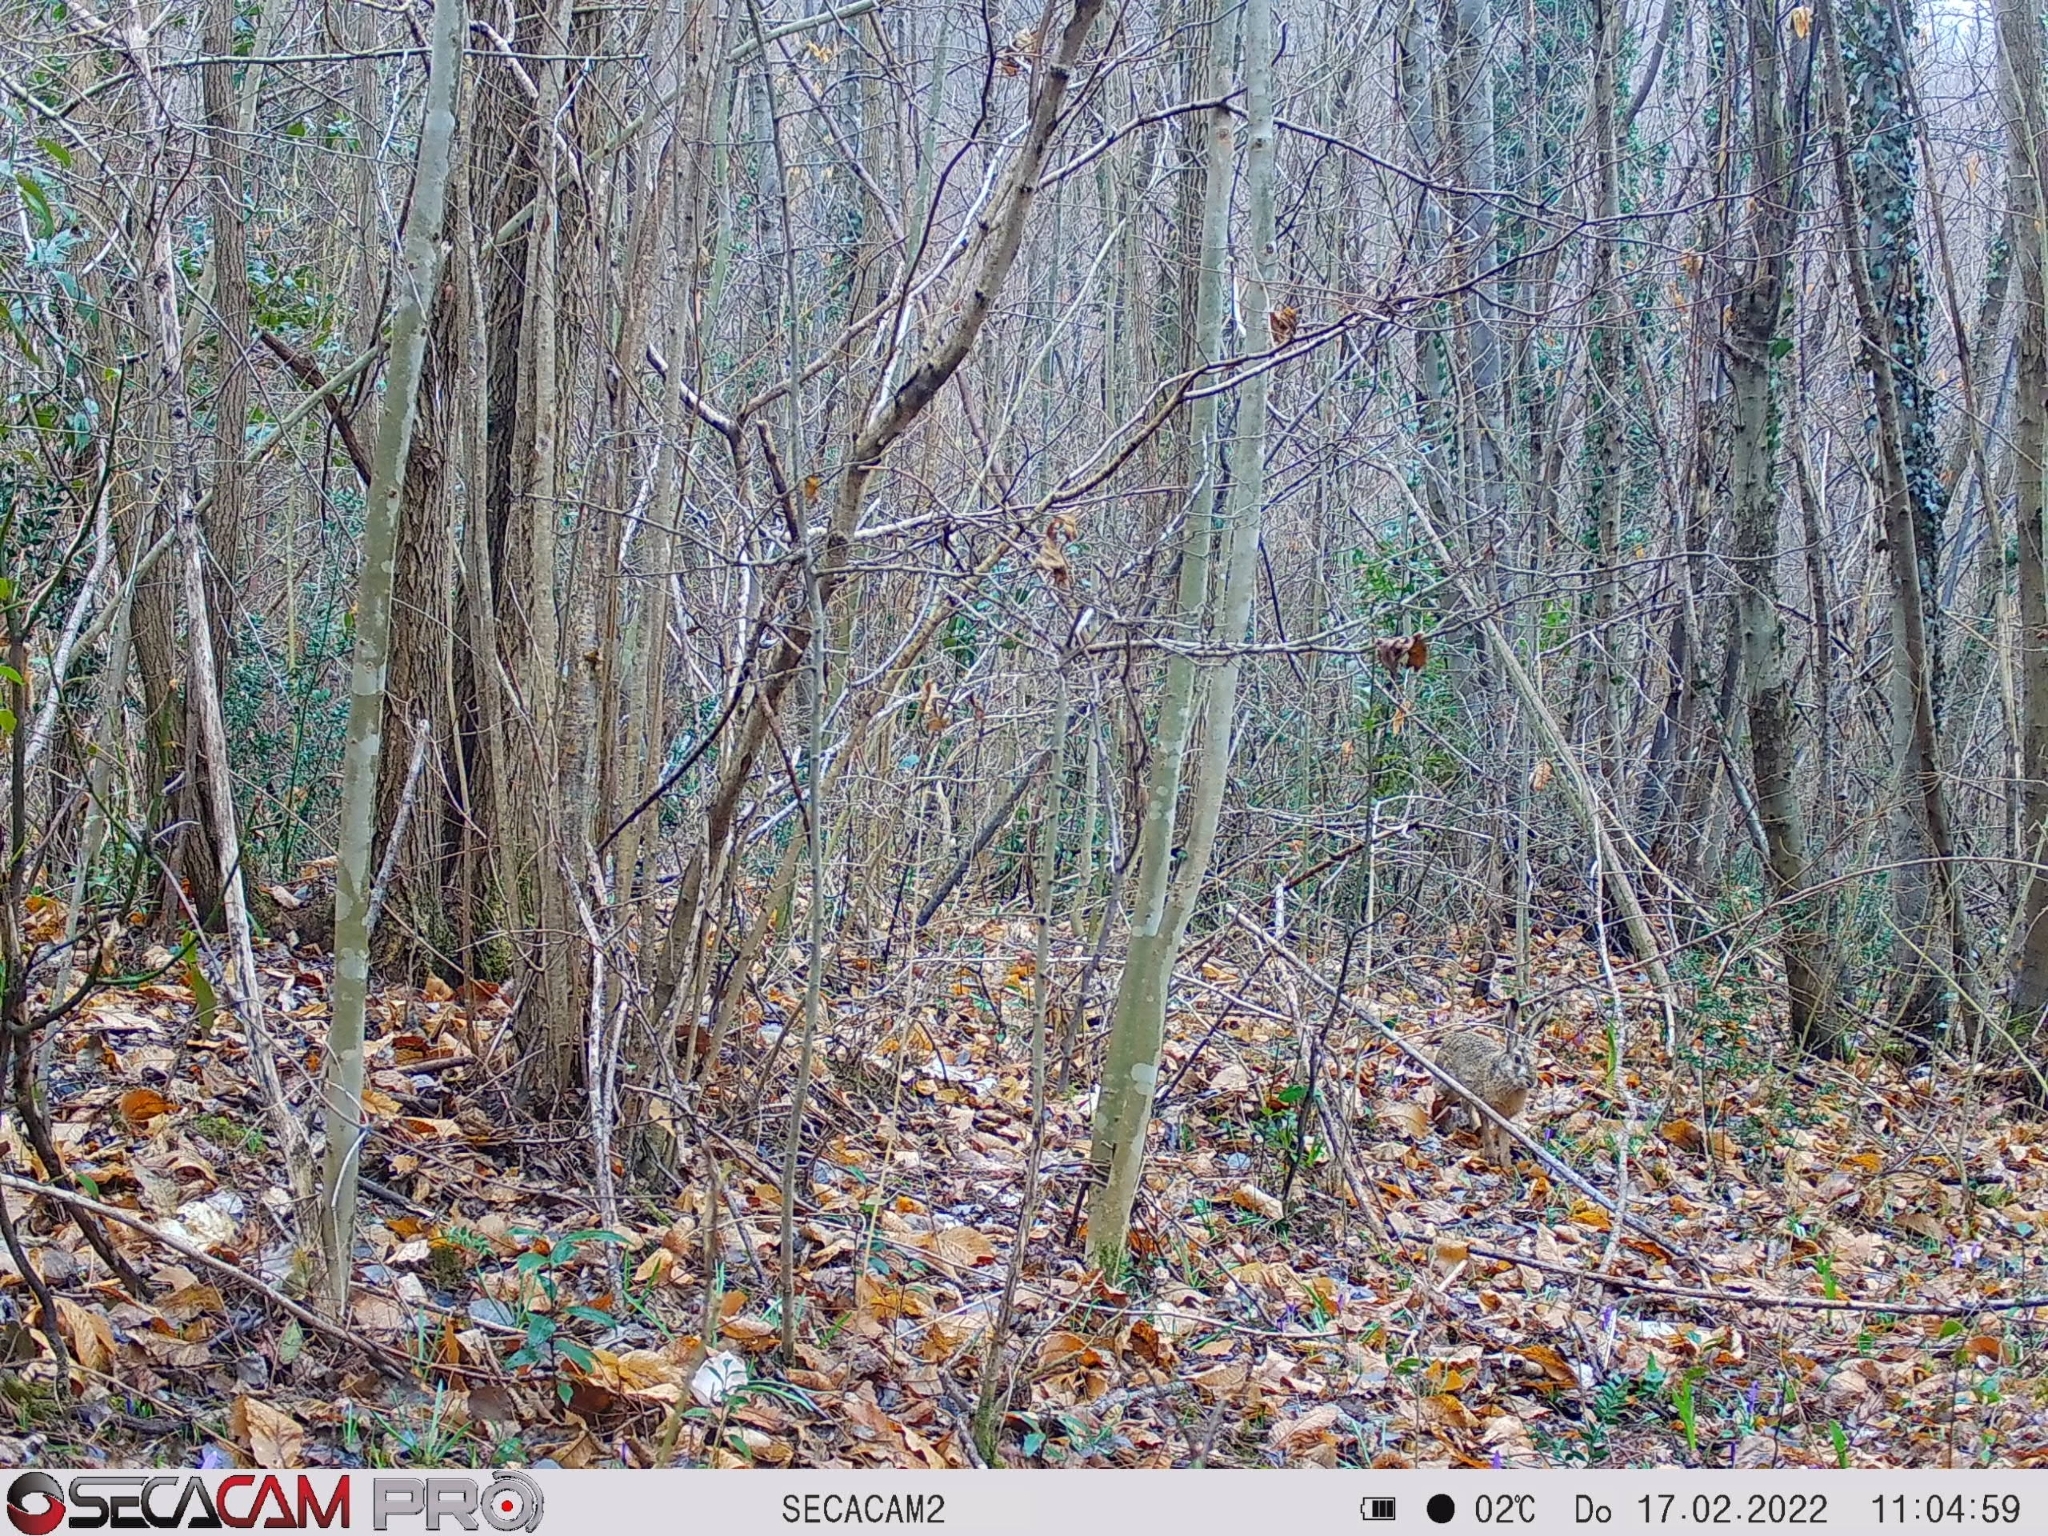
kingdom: Animalia
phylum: Chordata
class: Mammalia
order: Lagomorpha
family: Leporidae
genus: Lepus
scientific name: Lepus europaeus
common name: European hare
